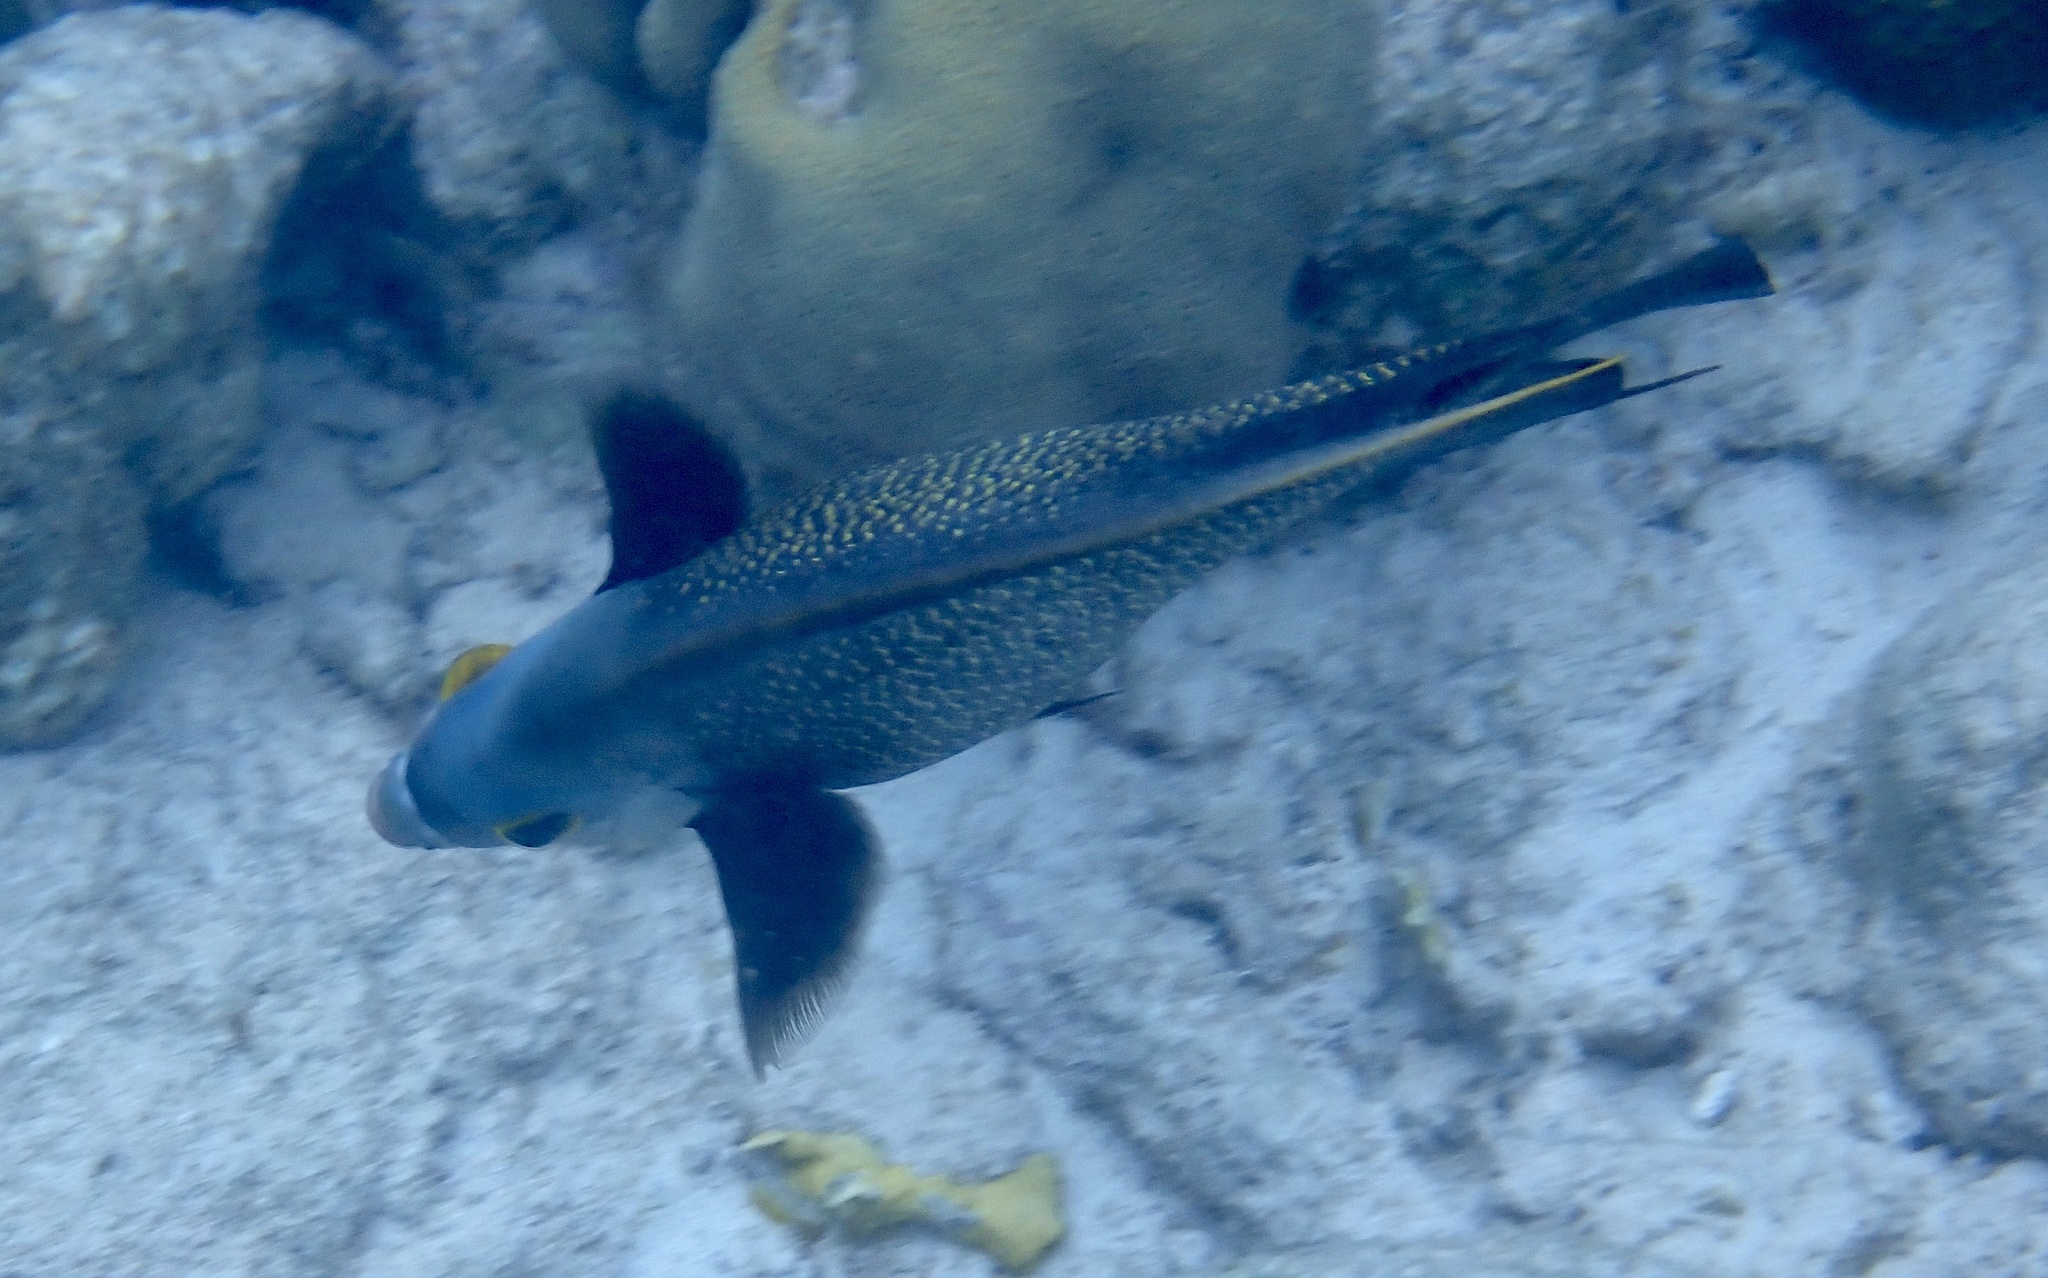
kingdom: Animalia
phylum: Chordata
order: Perciformes
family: Pomacanthidae
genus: Pomacanthus
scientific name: Pomacanthus paru
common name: French angelfish
